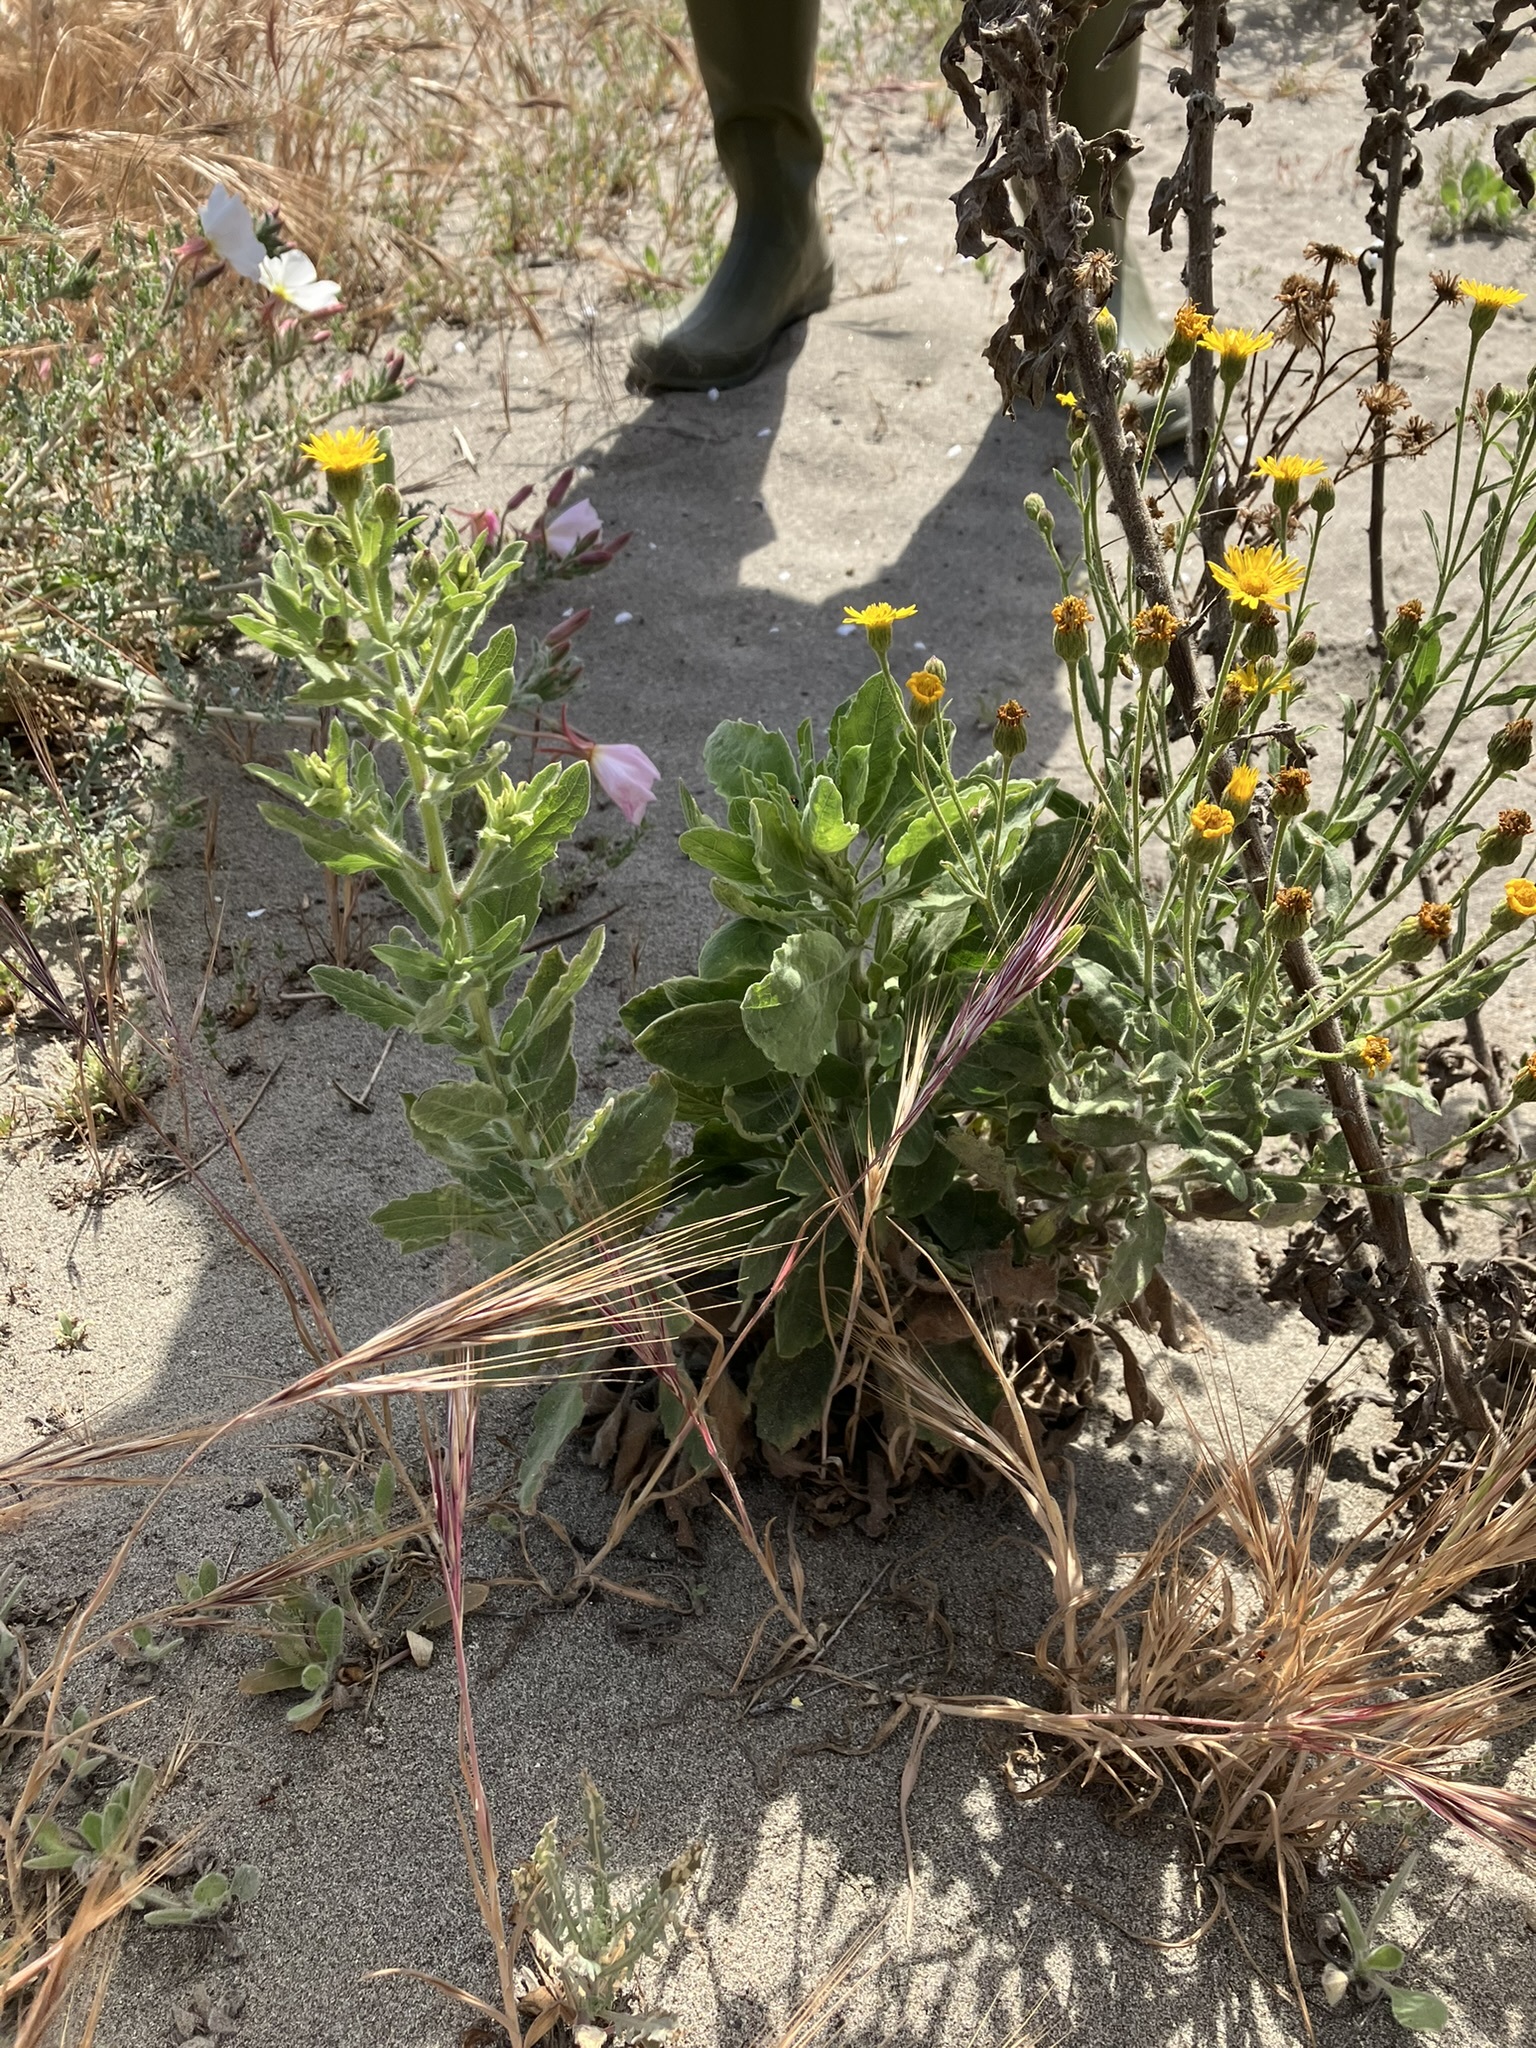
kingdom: Plantae
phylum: Tracheophyta
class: Magnoliopsida
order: Asterales
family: Asteraceae
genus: Heterotheca
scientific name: Heterotheca grandiflora
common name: Telegraphweed
